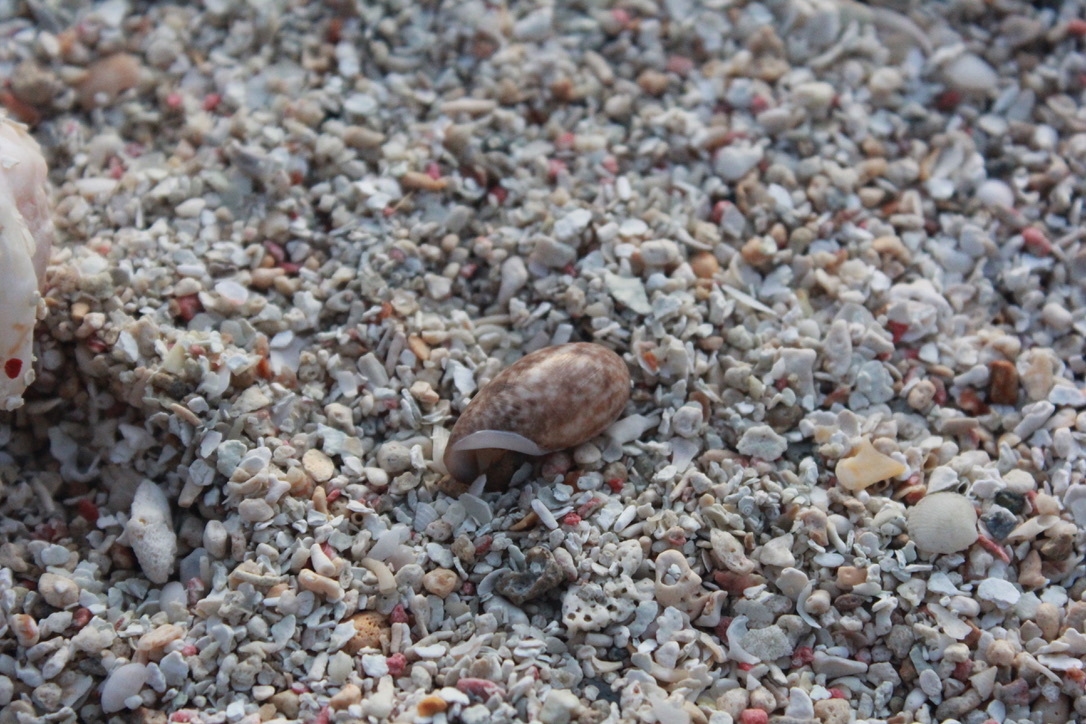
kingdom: Animalia
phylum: Mollusca
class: Gastropoda
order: Cephalaspidea
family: Bullidae
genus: Bulla
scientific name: Bulla occidentalis
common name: Common west-indian bubble
